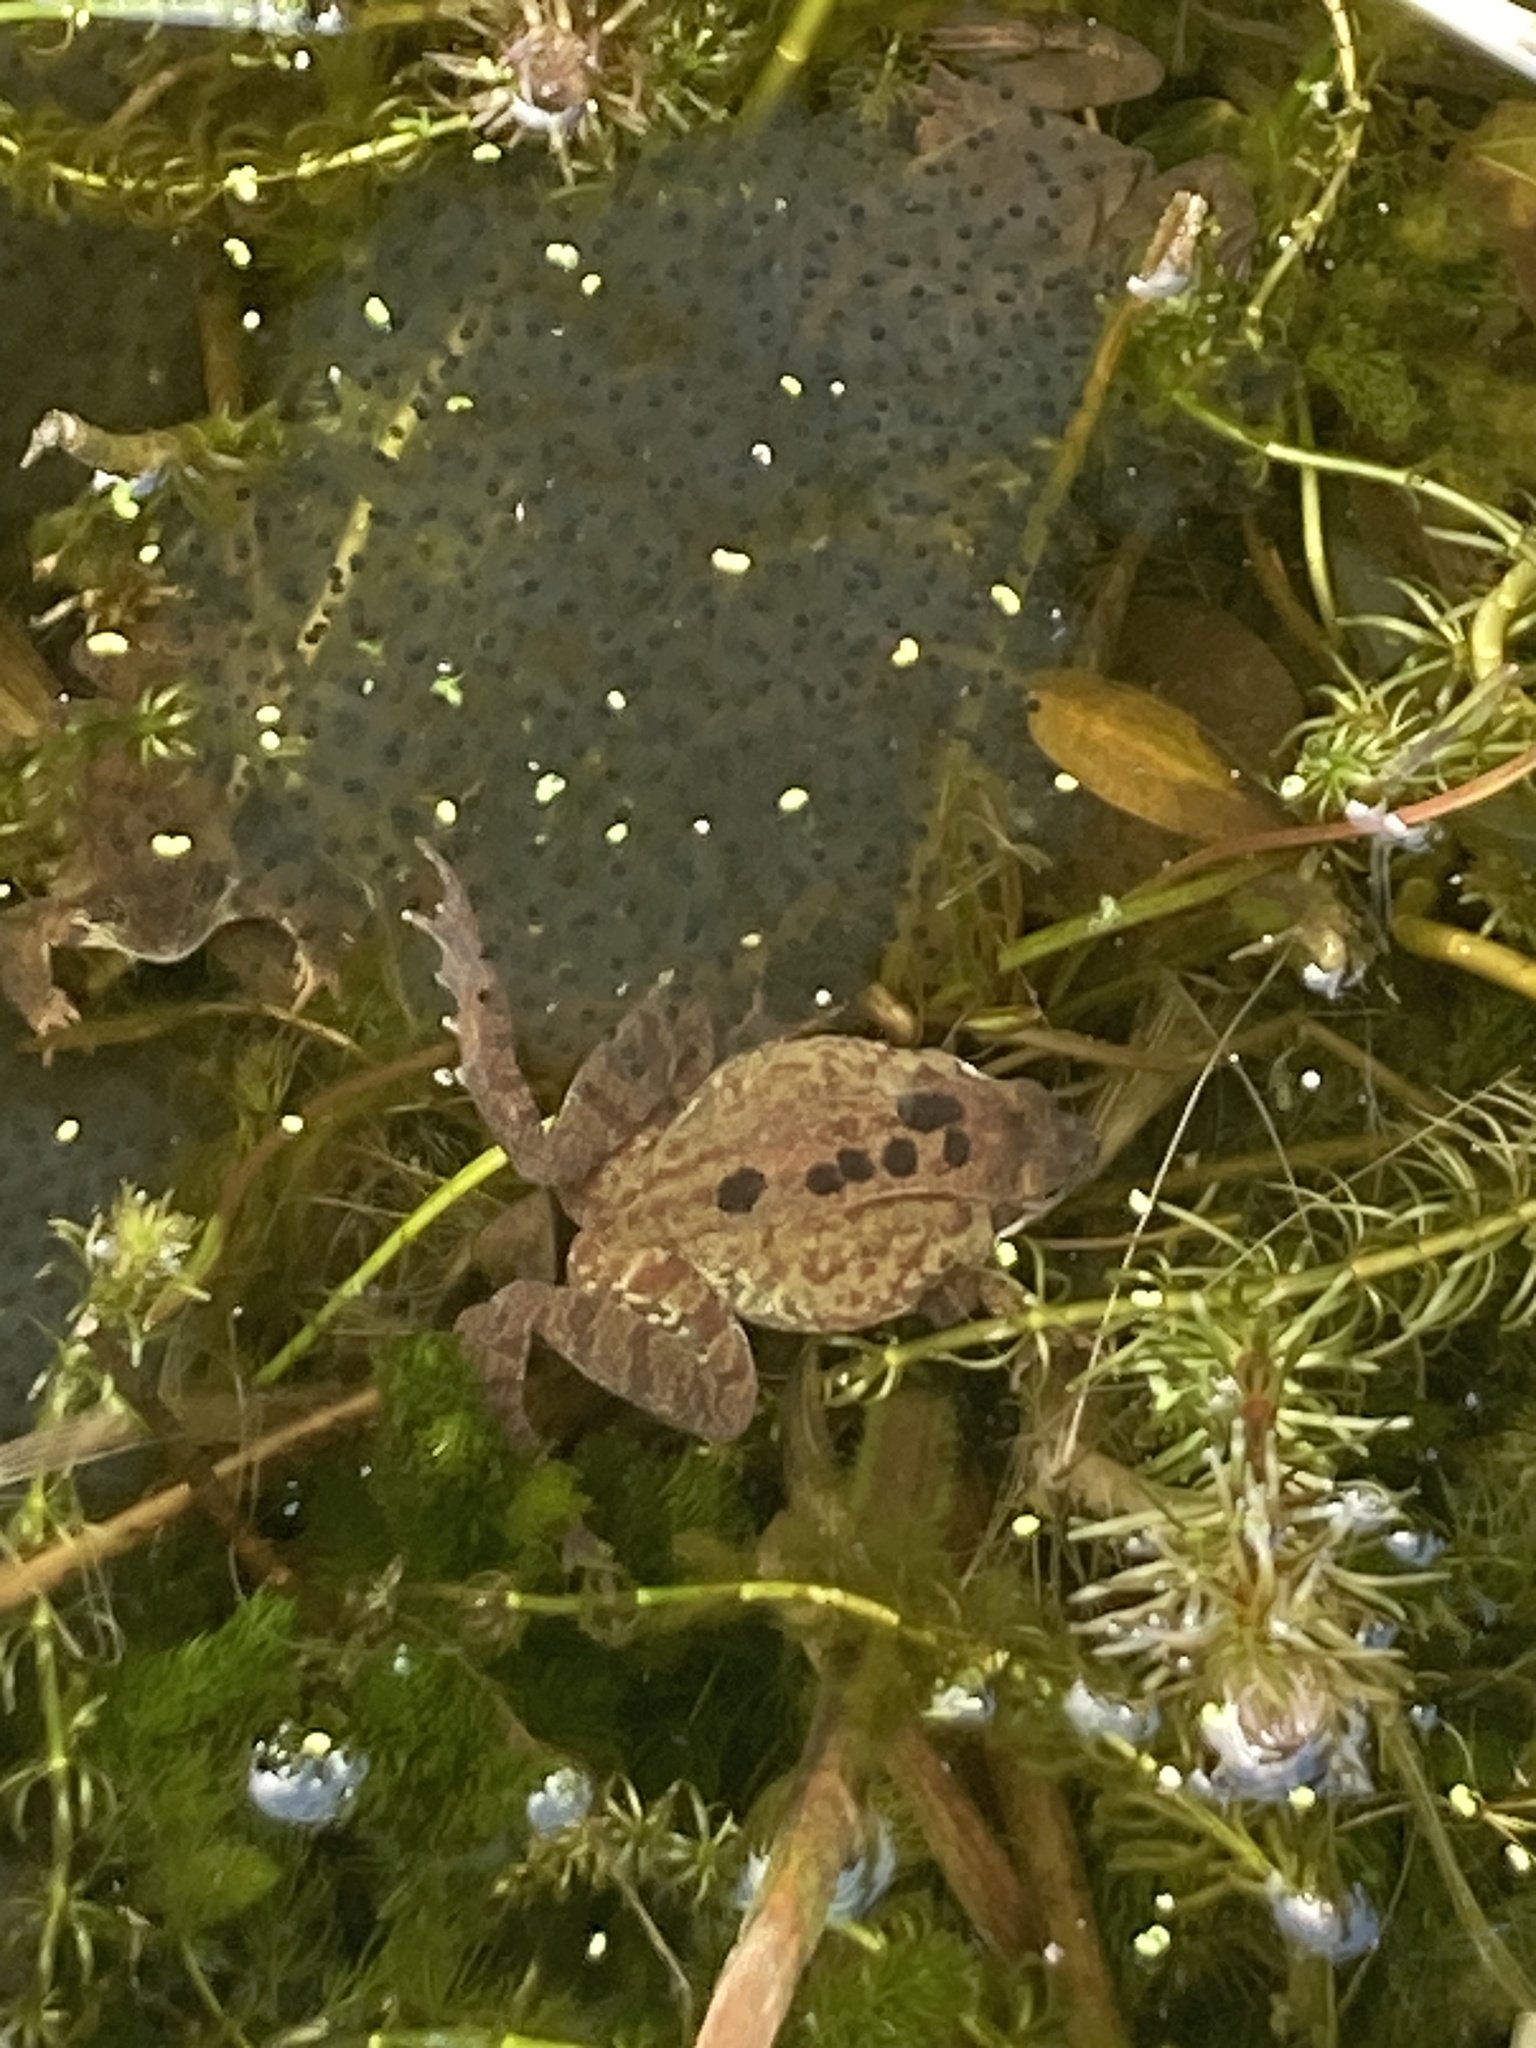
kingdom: Animalia
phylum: Chordata
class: Amphibia
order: Anura
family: Ranidae
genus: Rana
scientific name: Rana temporaria
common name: Common frog
